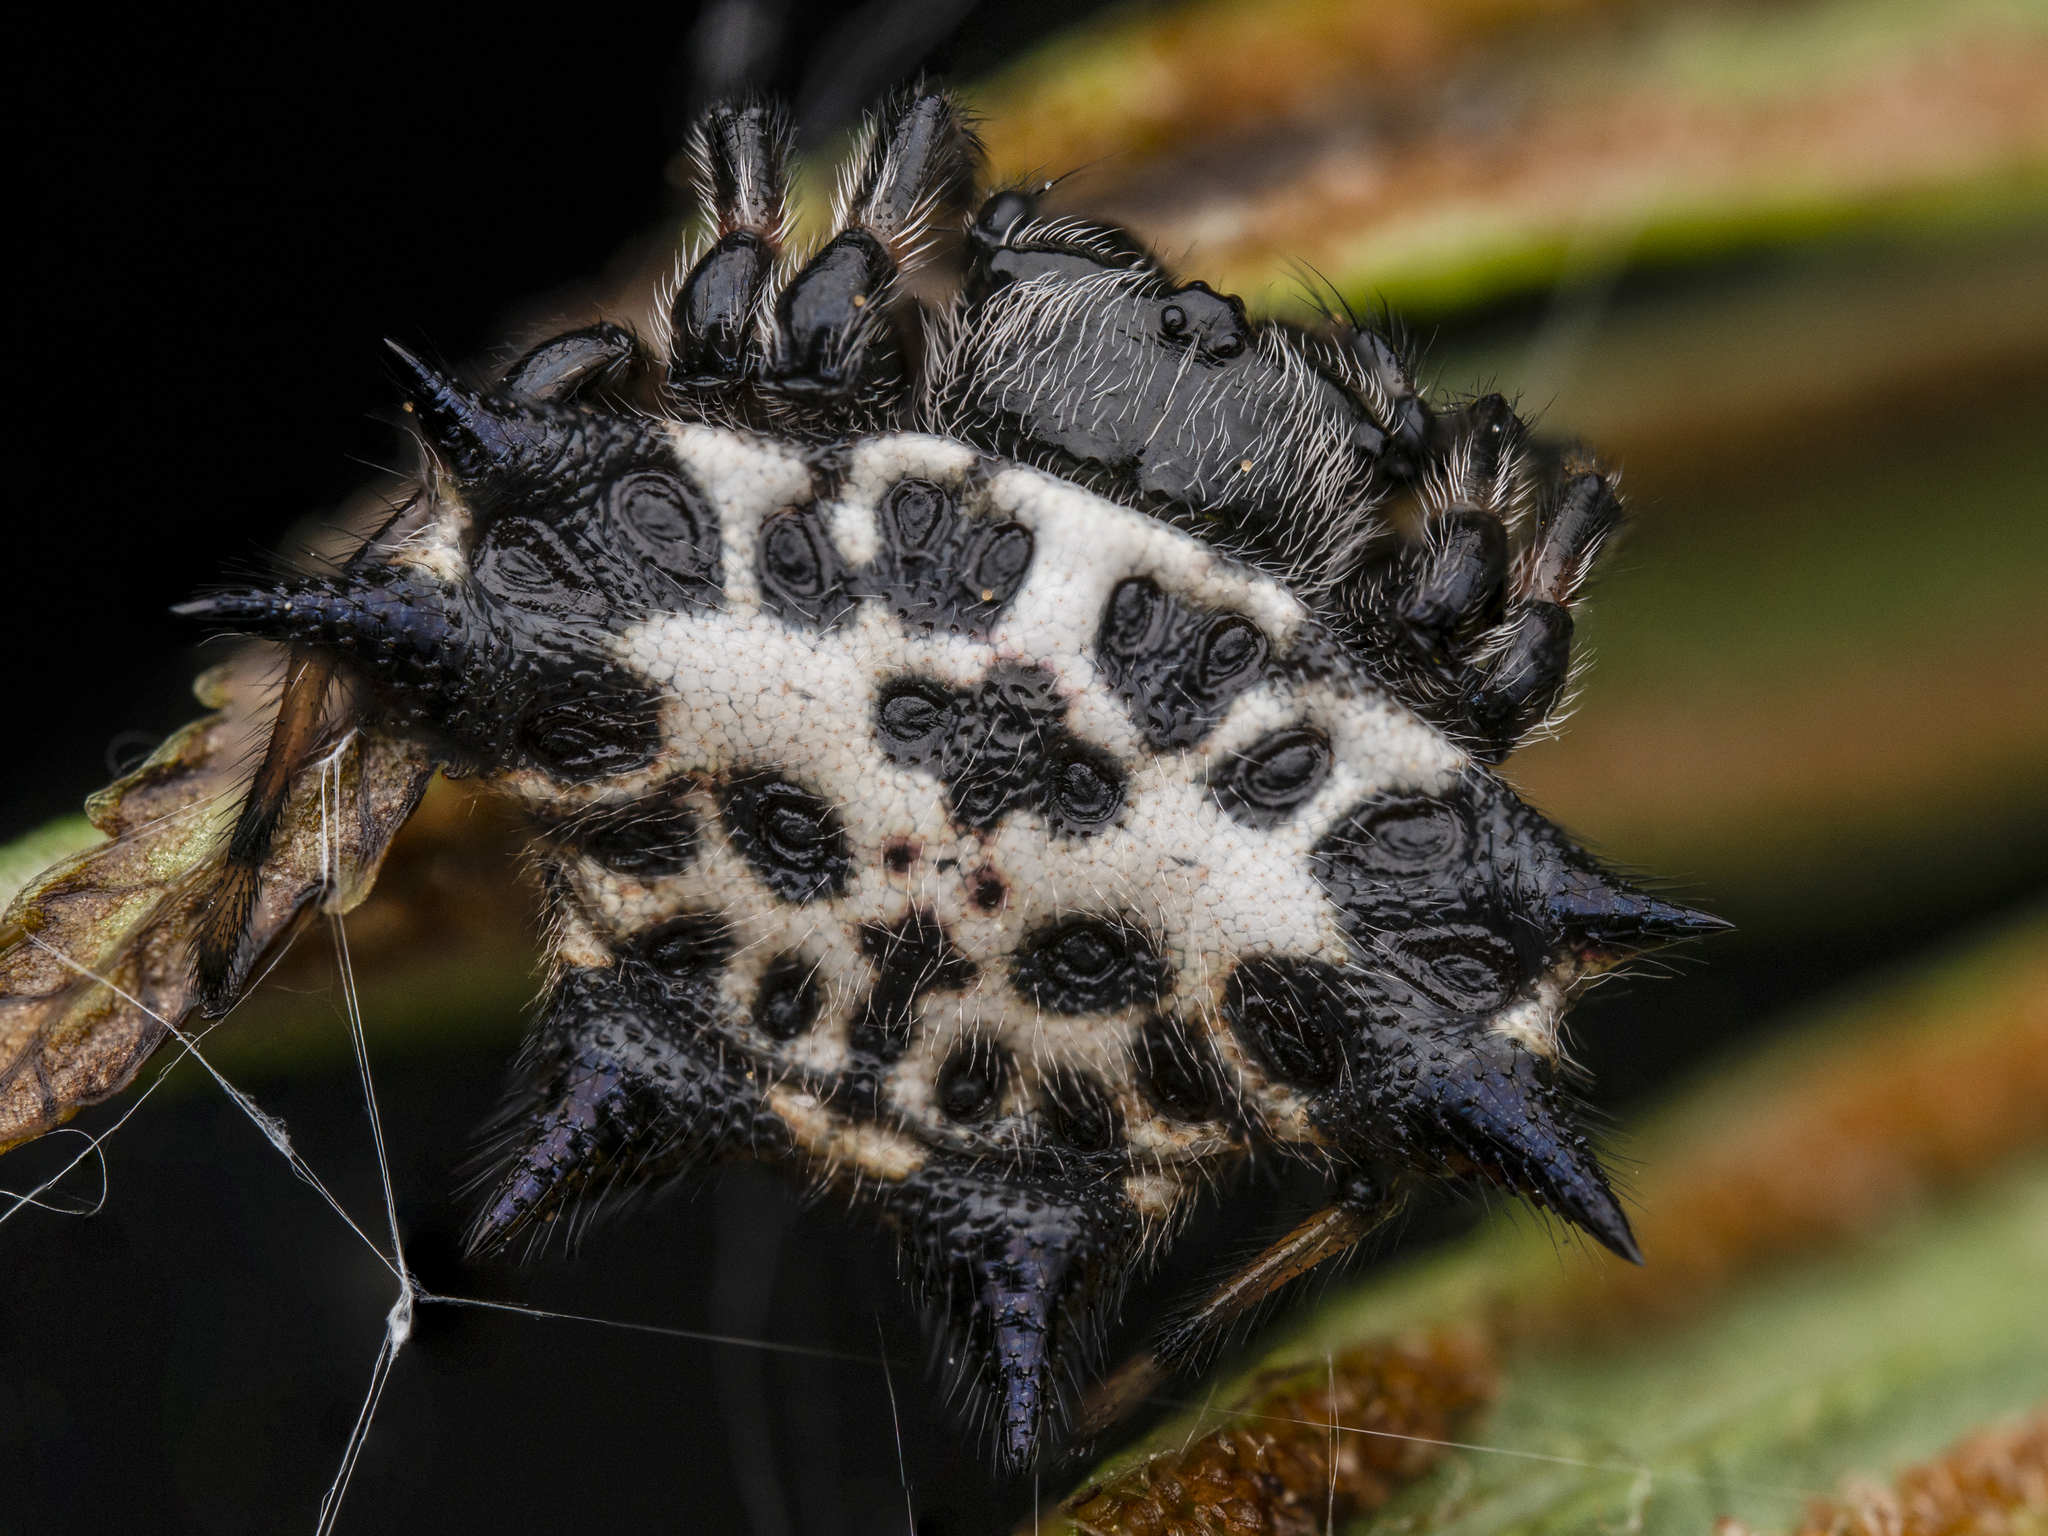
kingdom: Animalia
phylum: Arthropoda
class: Arachnida
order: Araneae
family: Araneidae
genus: Gasteracantha
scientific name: Gasteracantha kuhli
